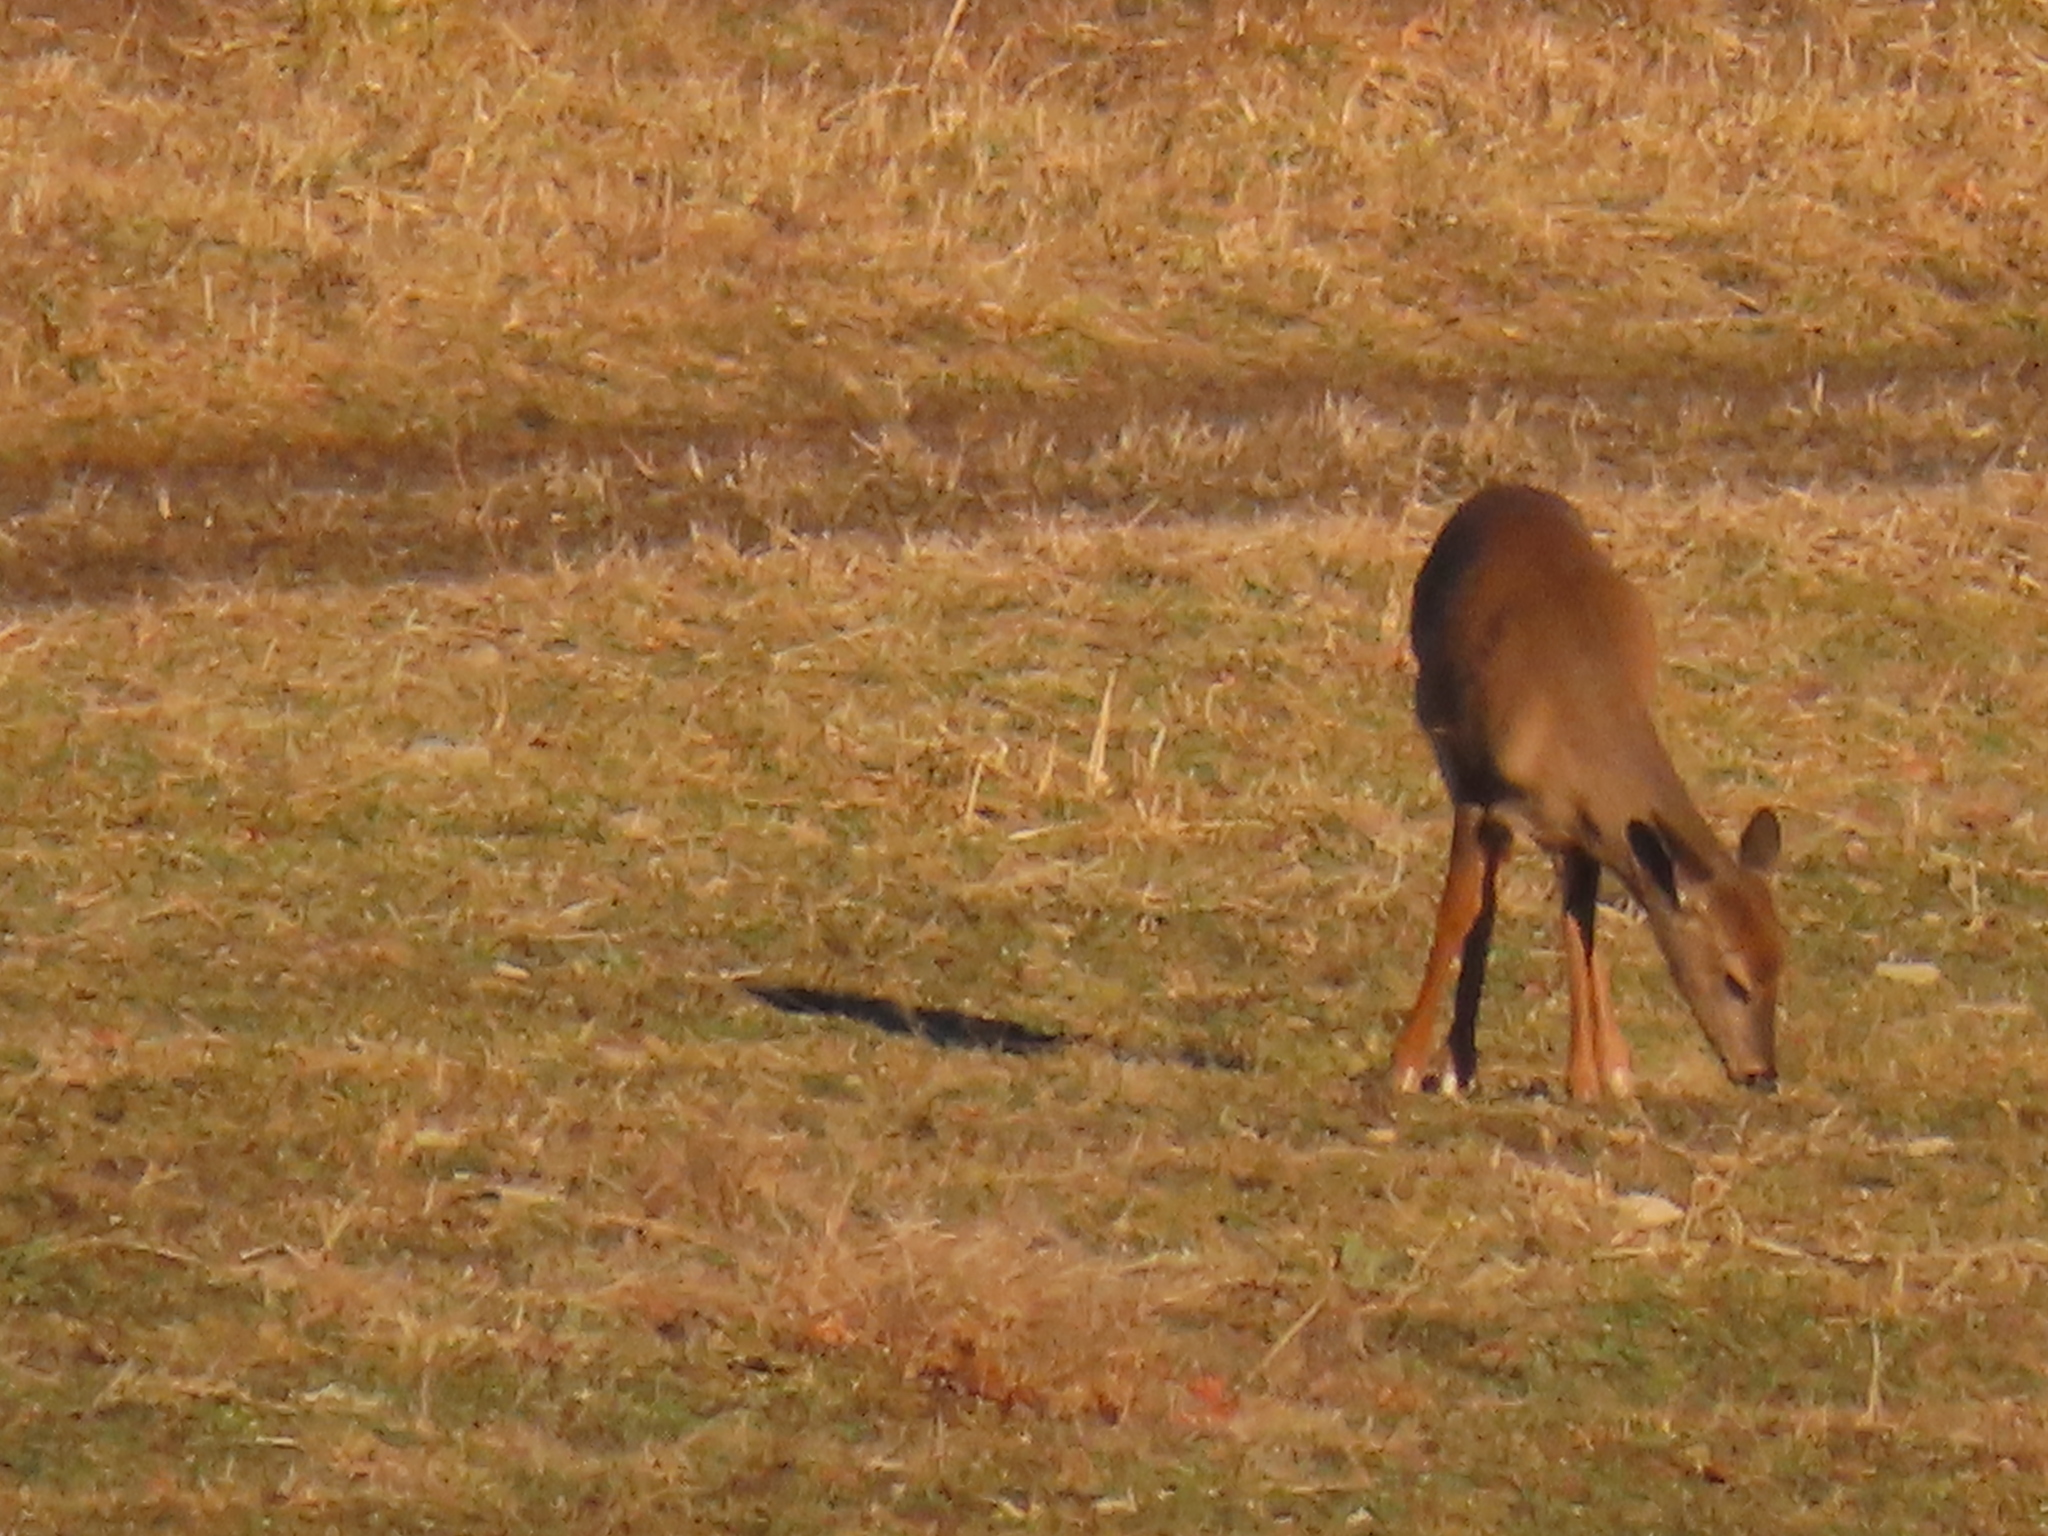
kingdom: Animalia
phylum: Chordata
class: Mammalia
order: Artiodactyla
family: Cervidae
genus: Odocoileus
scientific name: Odocoileus virginianus
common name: White-tailed deer
